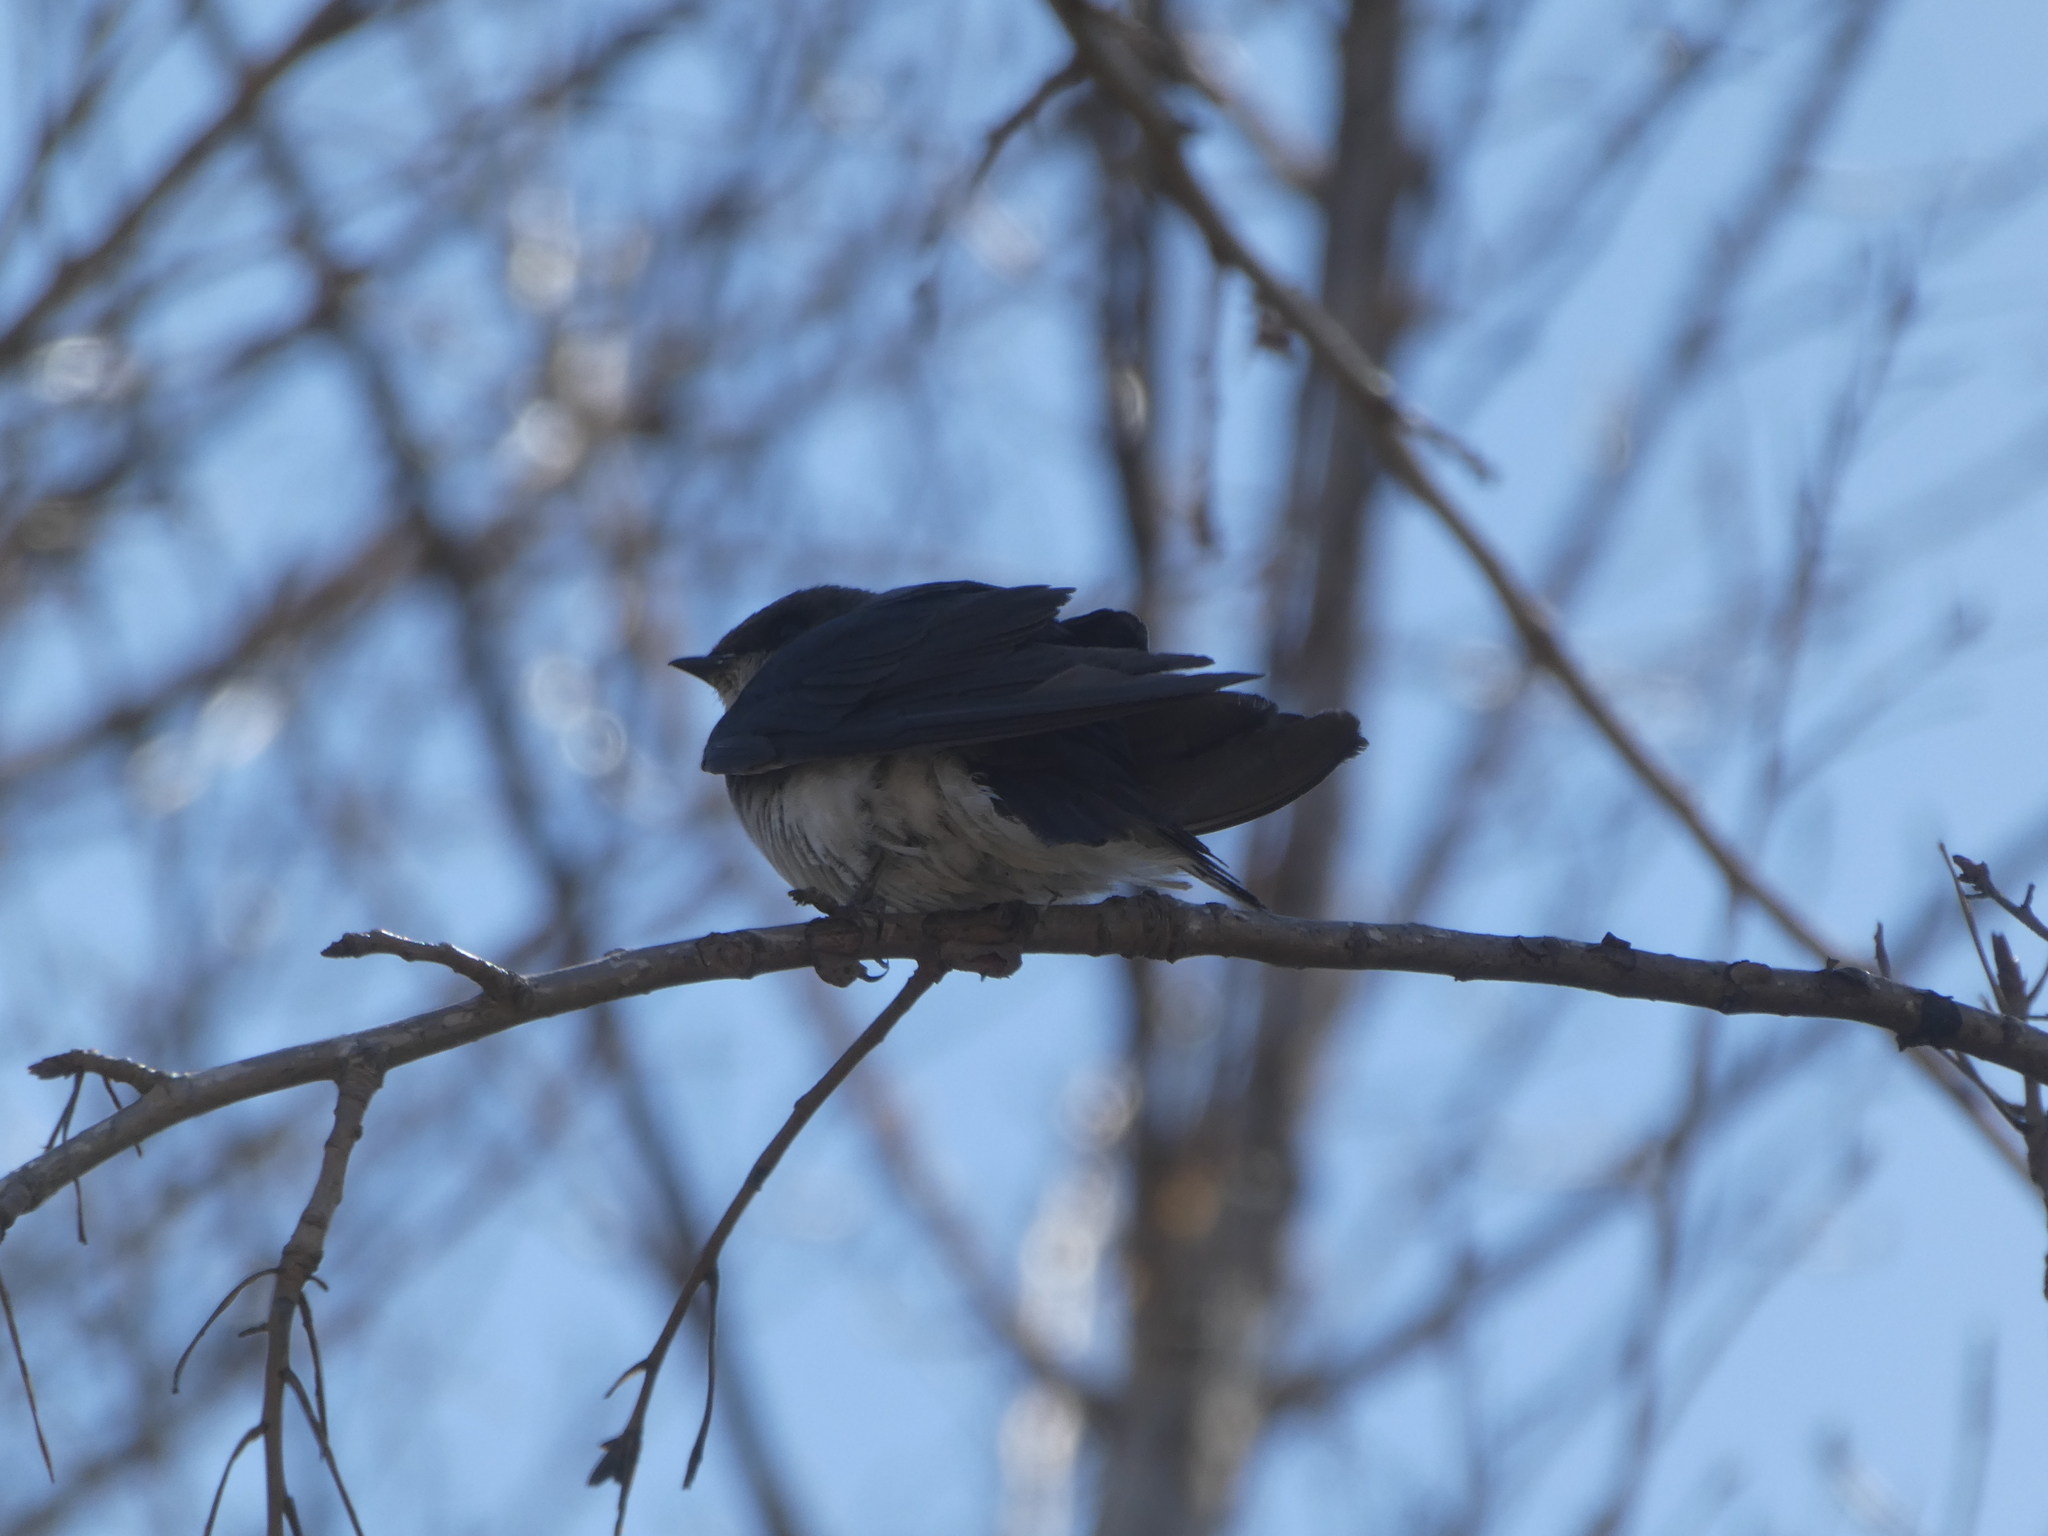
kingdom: Animalia
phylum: Chordata
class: Aves
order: Passeriformes
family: Hirundinidae
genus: Tachycineta
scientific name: Tachycineta bicolor
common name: Tree swallow
